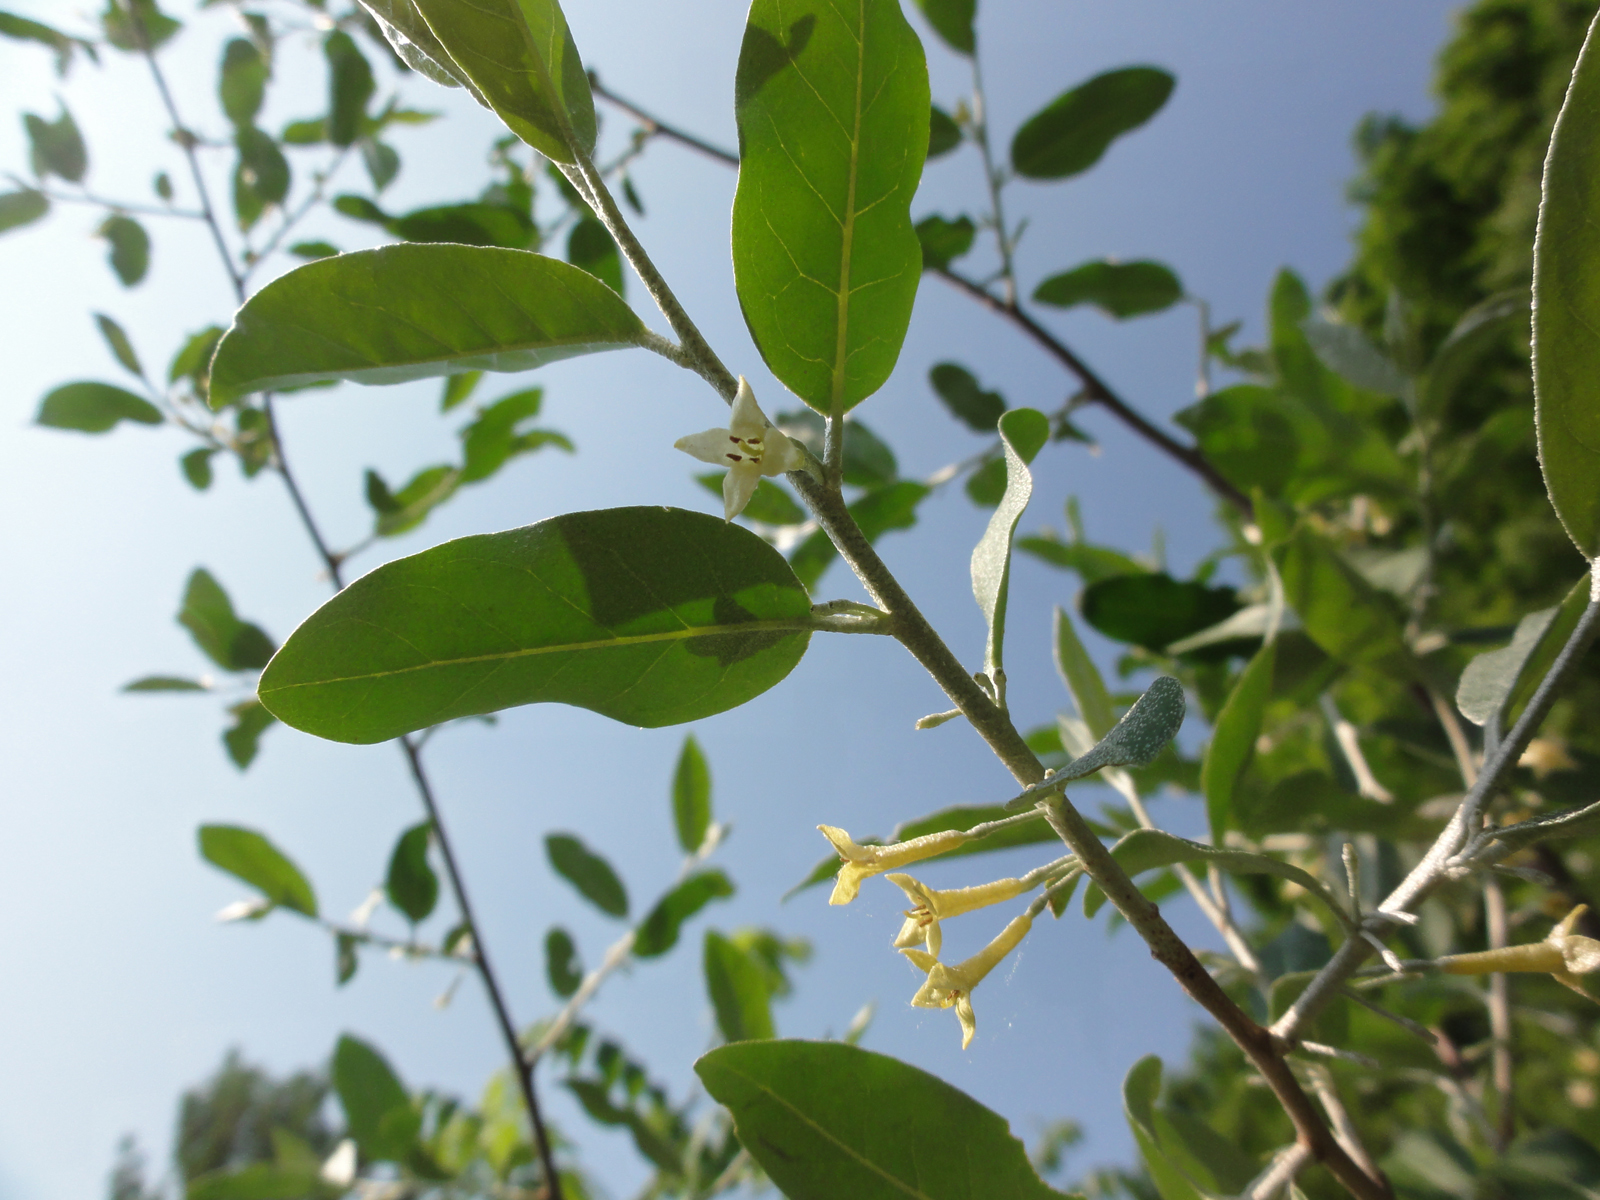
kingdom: Plantae
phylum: Tracheophyta
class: Magnoliopsida
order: Rosales
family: Elaeagnaceae
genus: Elaeagnus
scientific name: Elaeagnus umbellata
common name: Autumn olive
